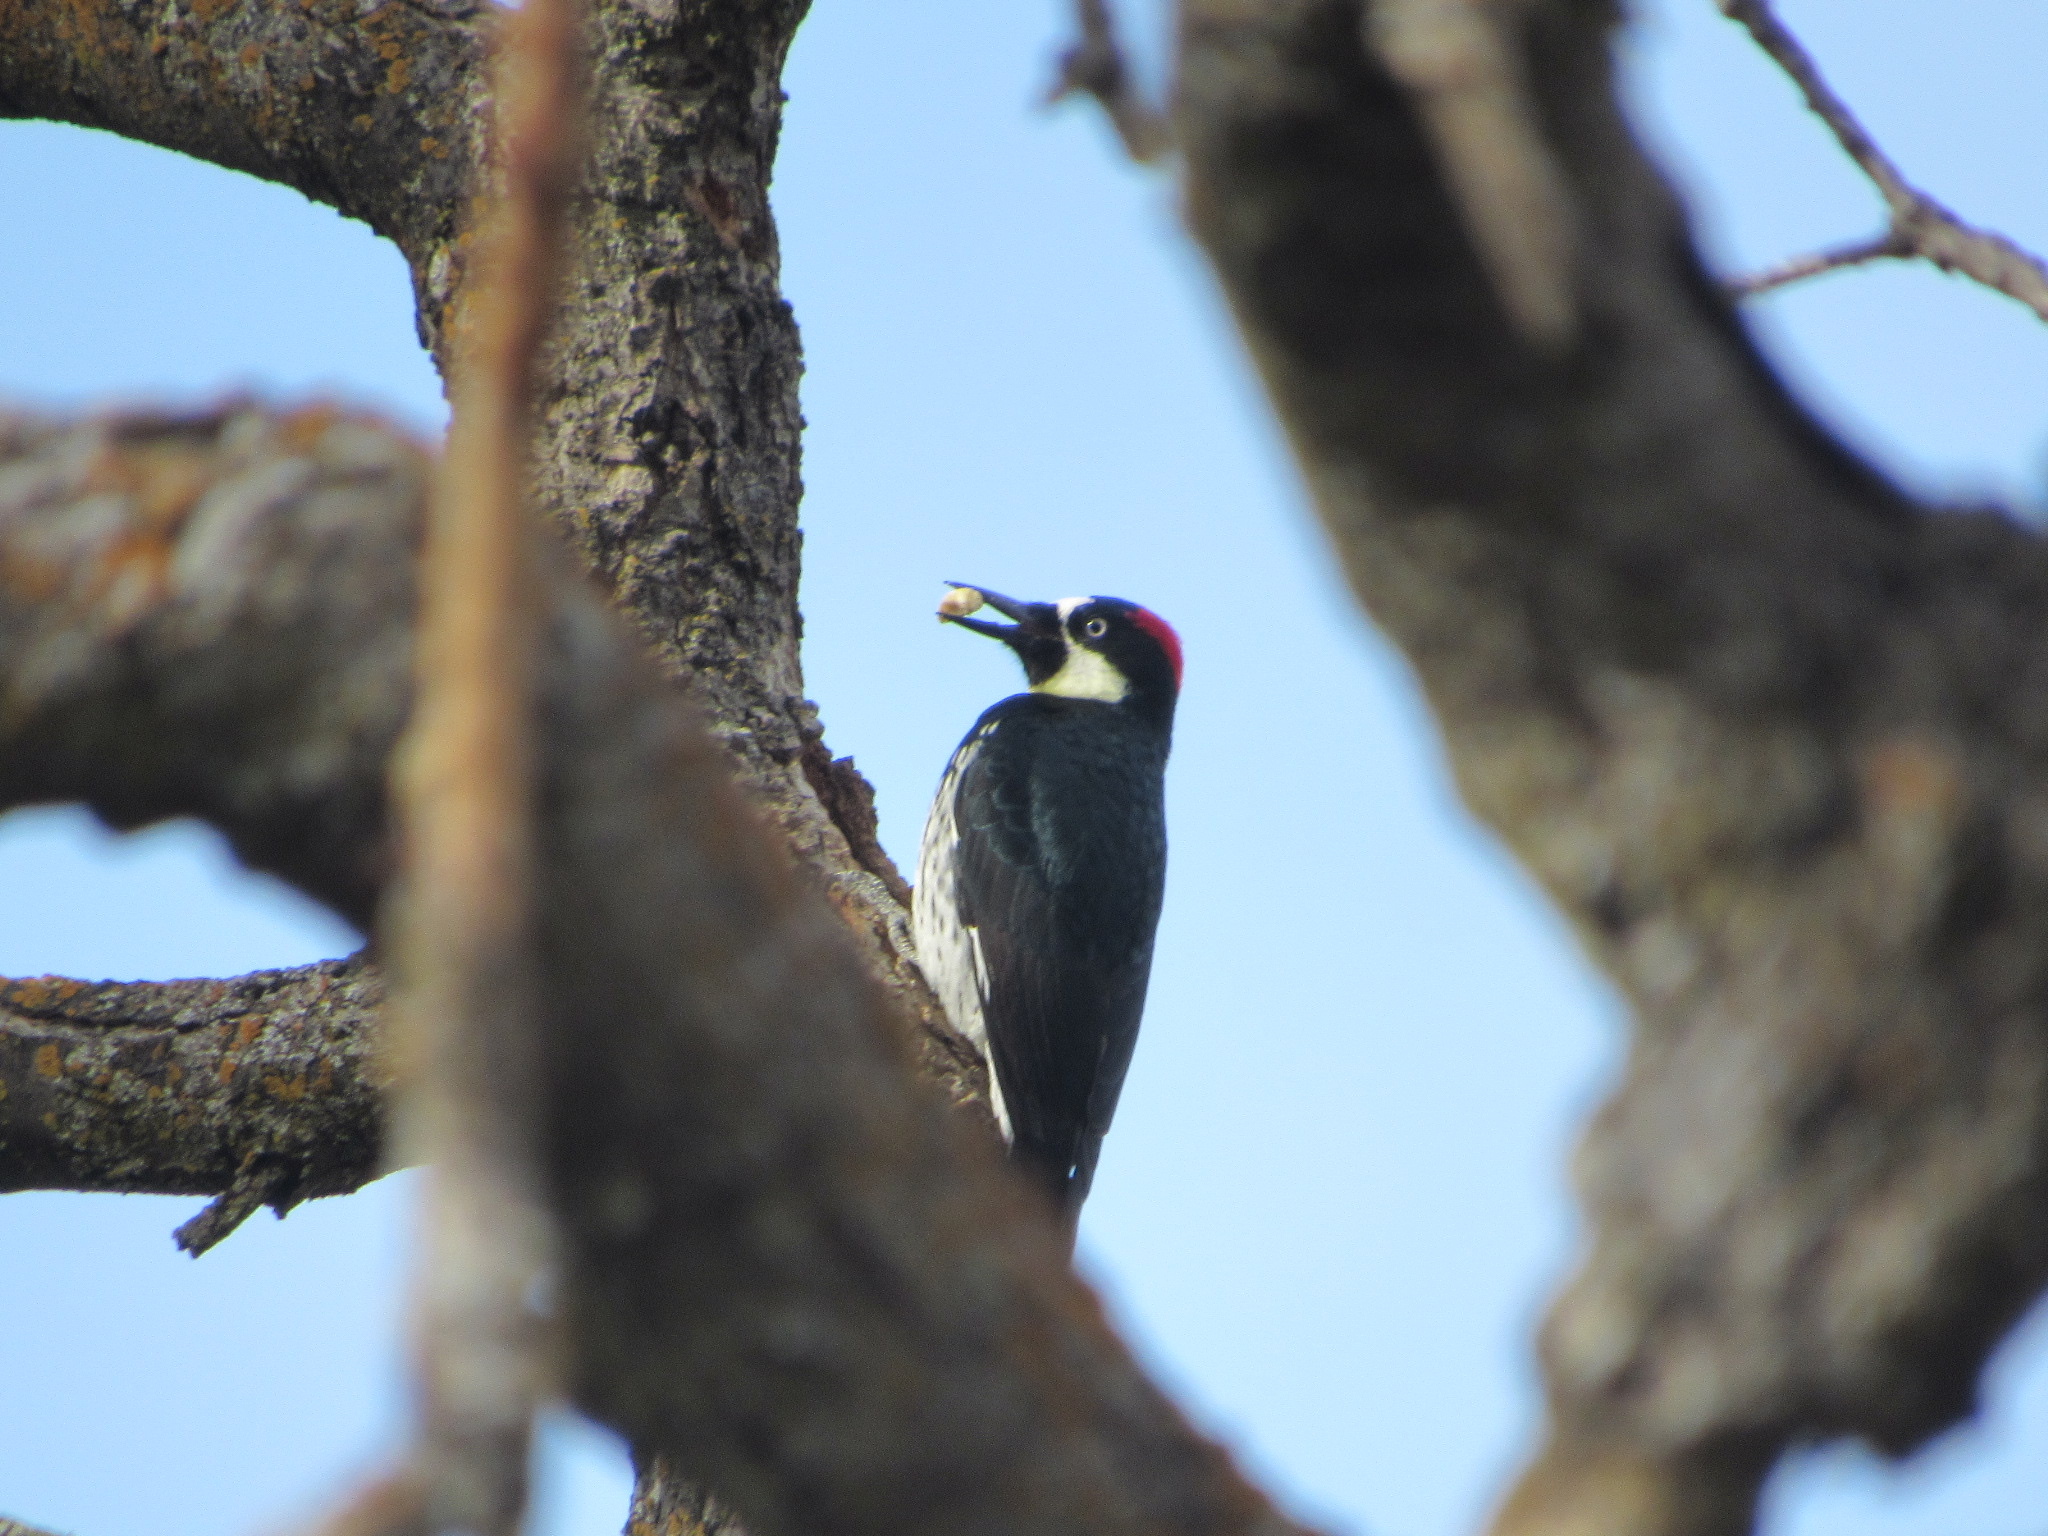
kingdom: Animalia
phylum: Chordata
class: Aves
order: Piciformes
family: Picidae
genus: Melanerpes
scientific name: Melanerpes formicivorus
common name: Acorn woodpecker
